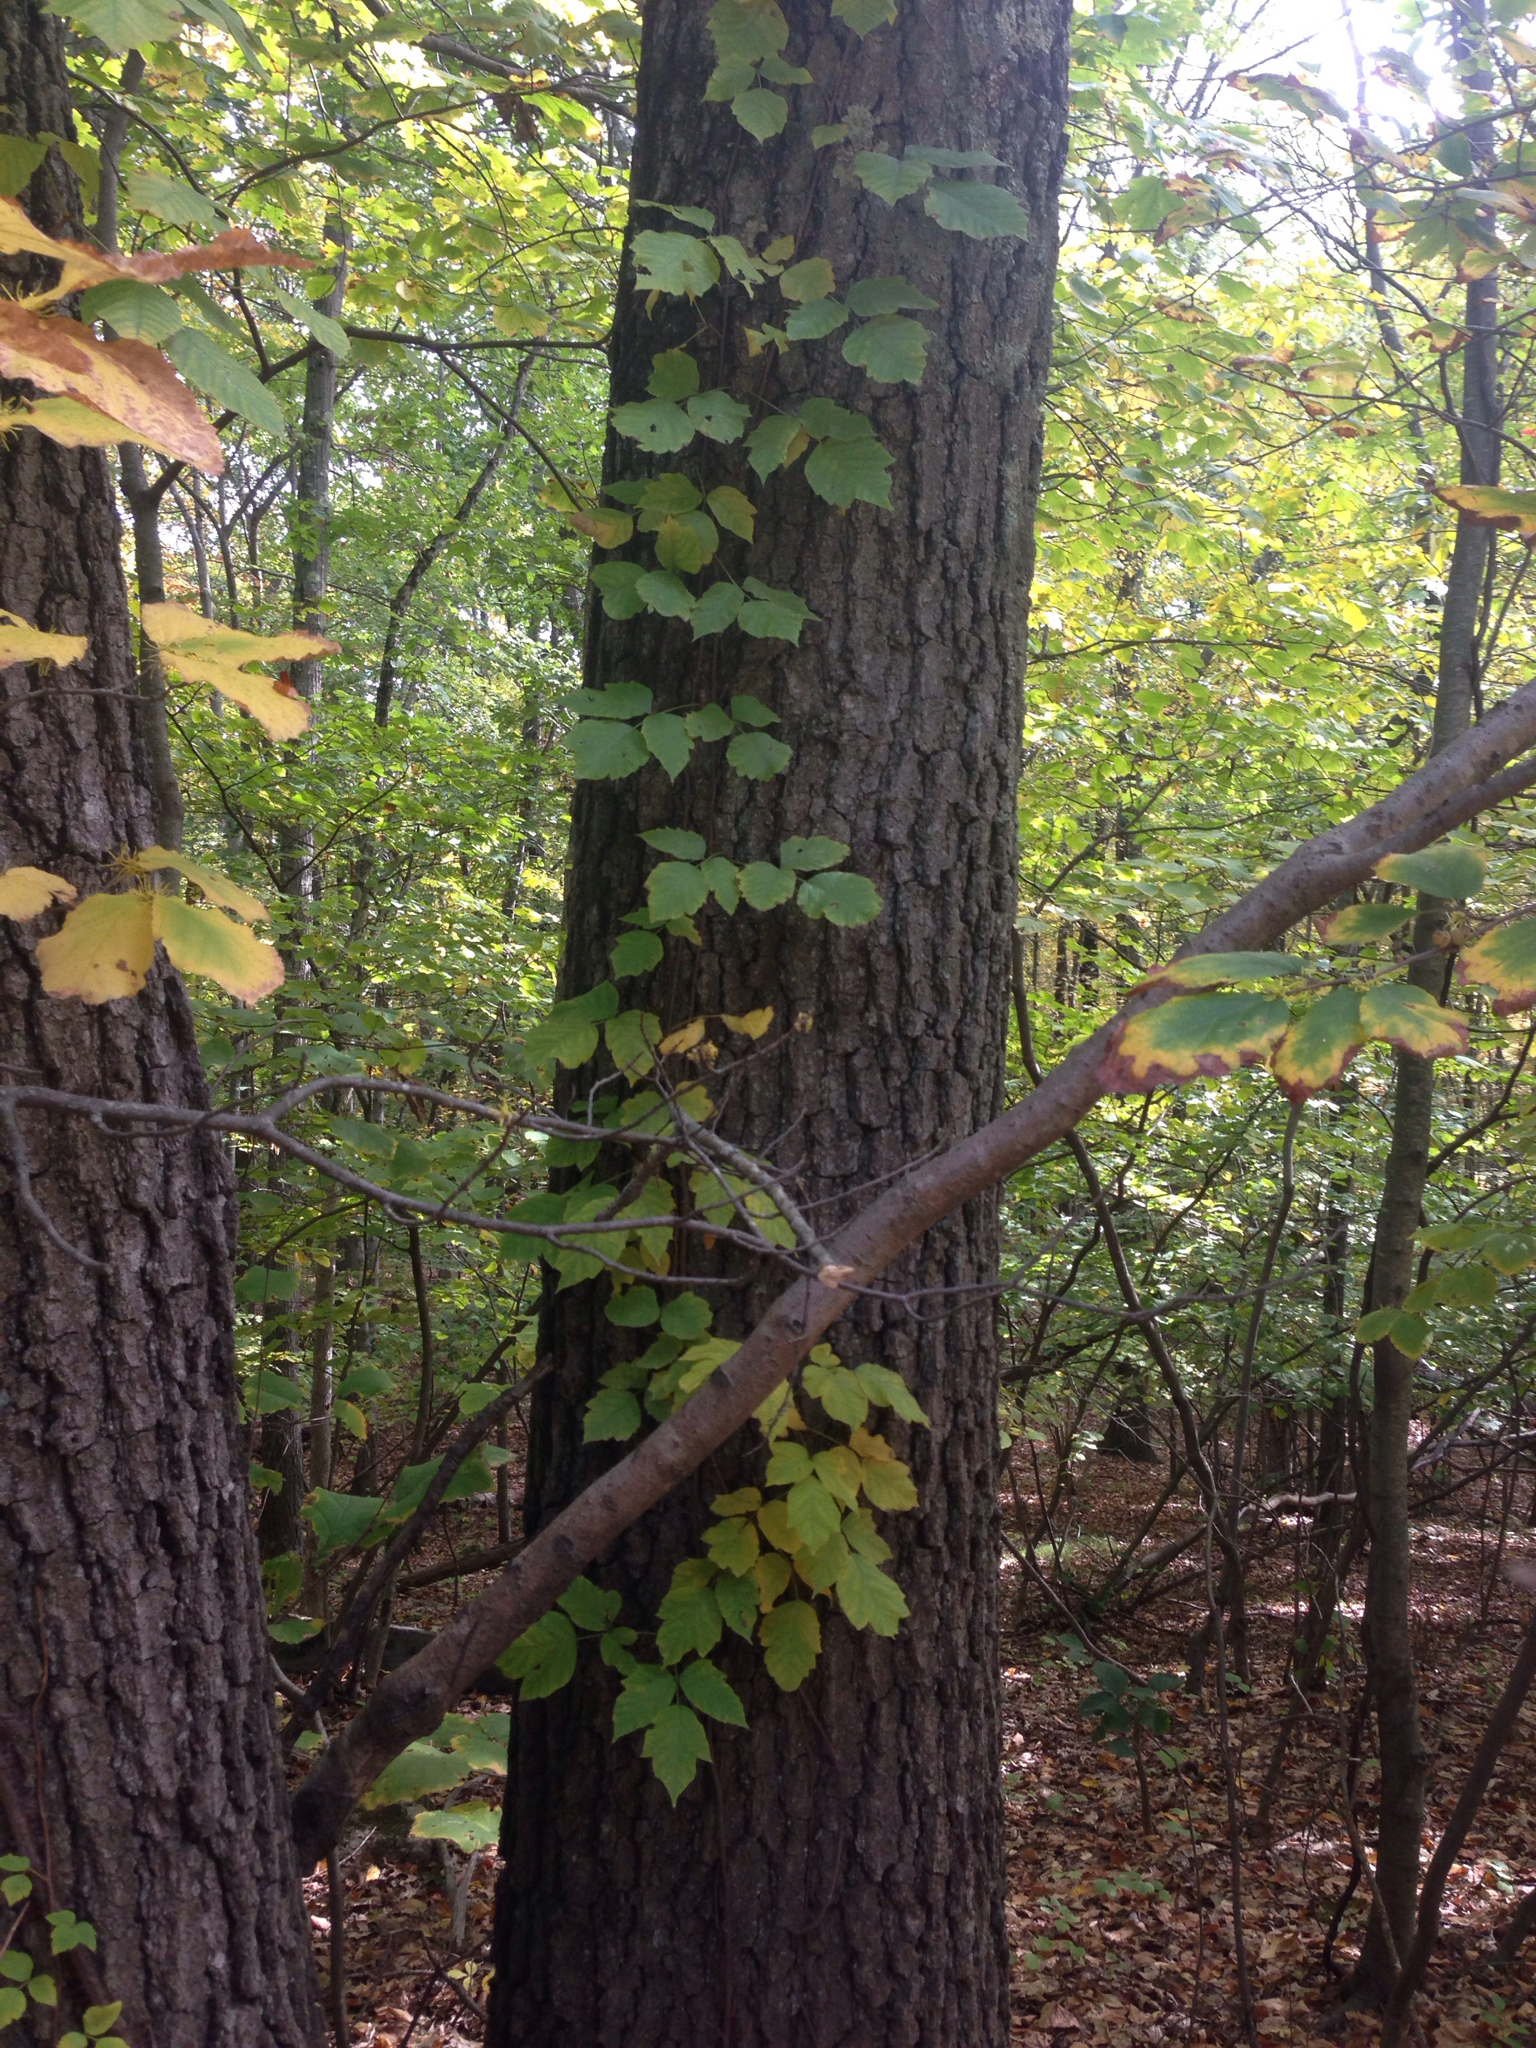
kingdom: Plantae
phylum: Tracheophyta
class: Magnoliopsida
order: Sapindales
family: Anacardiaceae
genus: Toxicodendron
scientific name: Toxicodendron radicans
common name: Poison ivy
